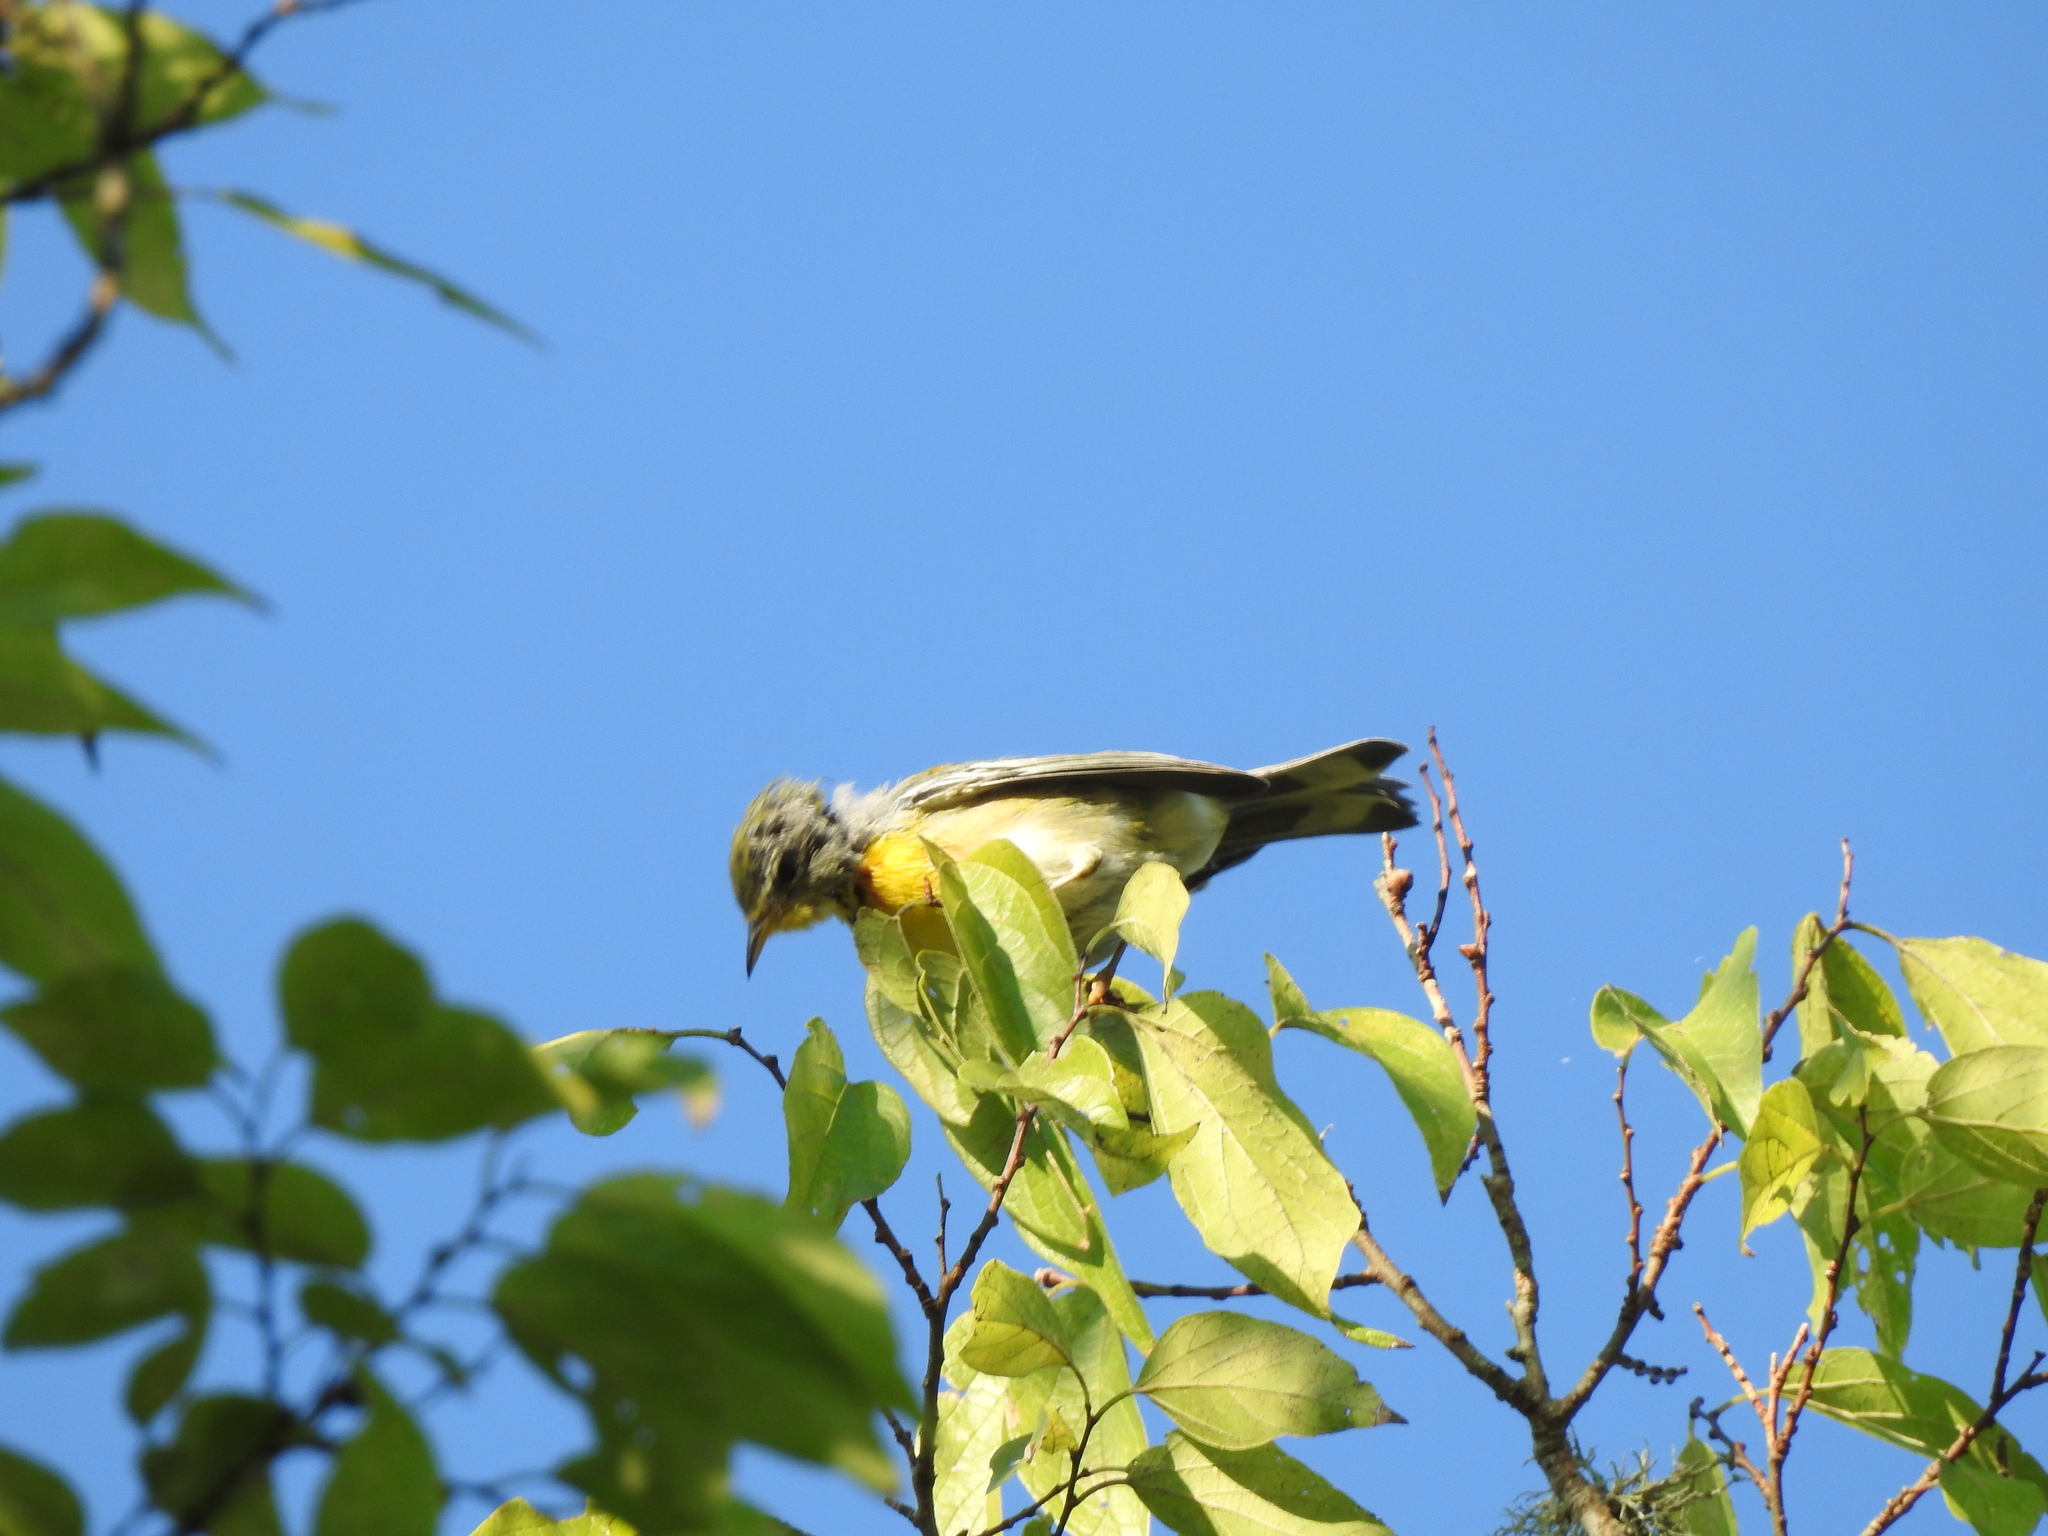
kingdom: Animalia
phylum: Chordata
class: Aves
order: Passeriformes
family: Parulidae
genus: Setophaga
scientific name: Setophaga americana
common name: Northern parula
